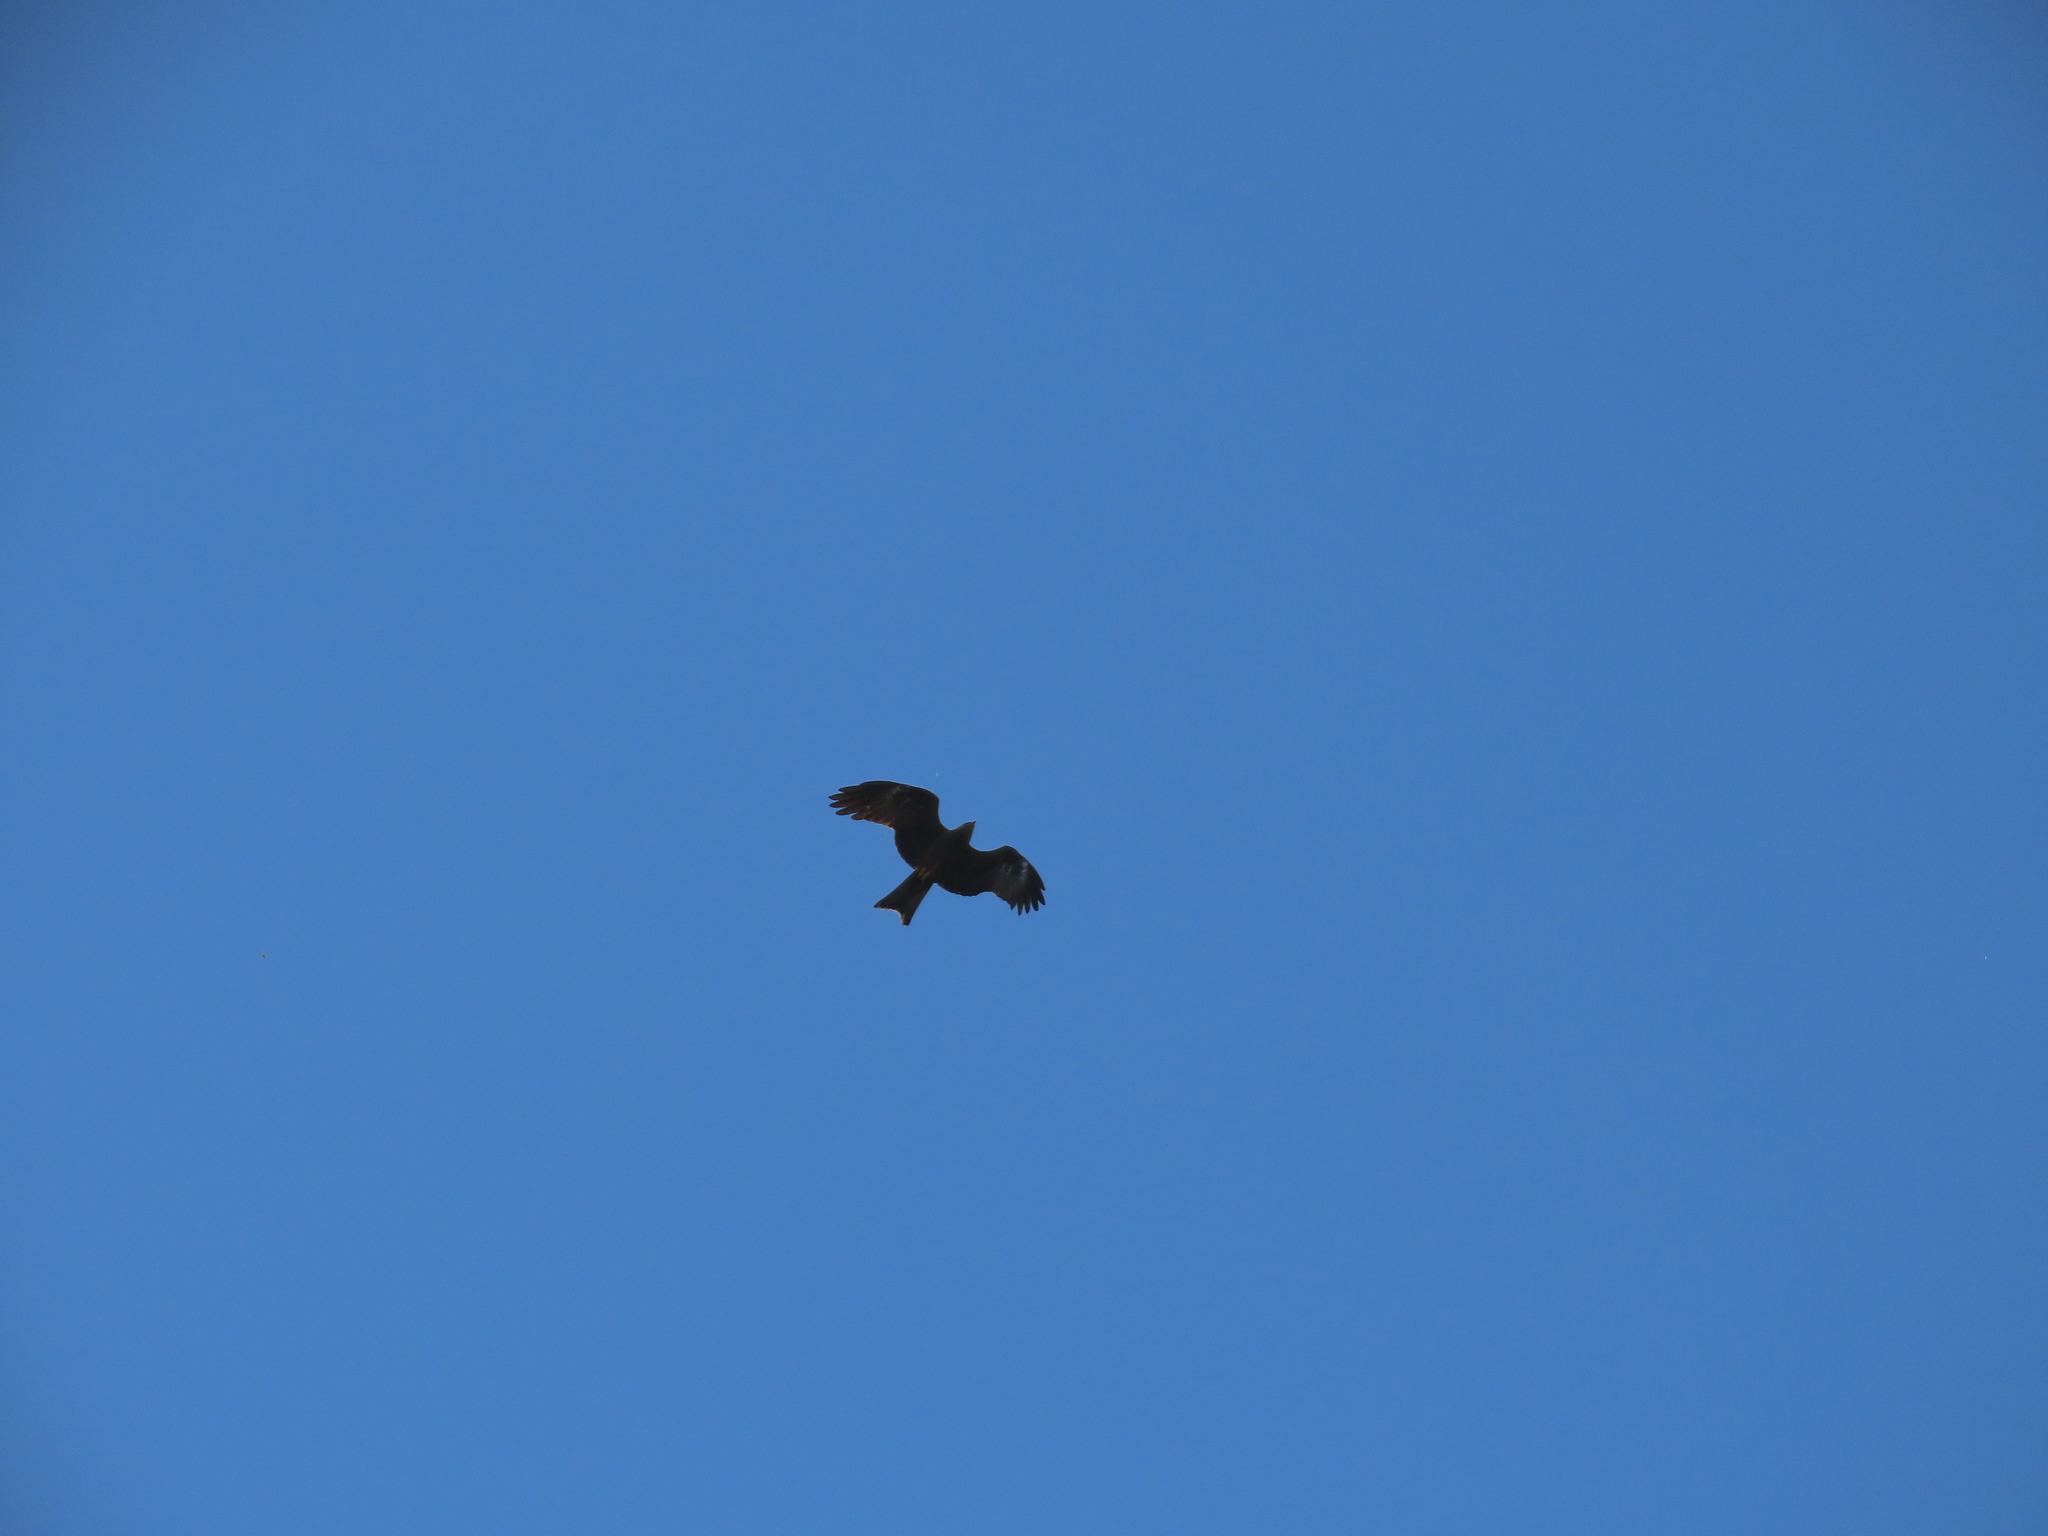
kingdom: Animalia
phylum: Chordata
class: Aves
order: Accipitriformes
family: Accipitridae
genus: Milvus
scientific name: Milvus migrans
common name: Black kite
